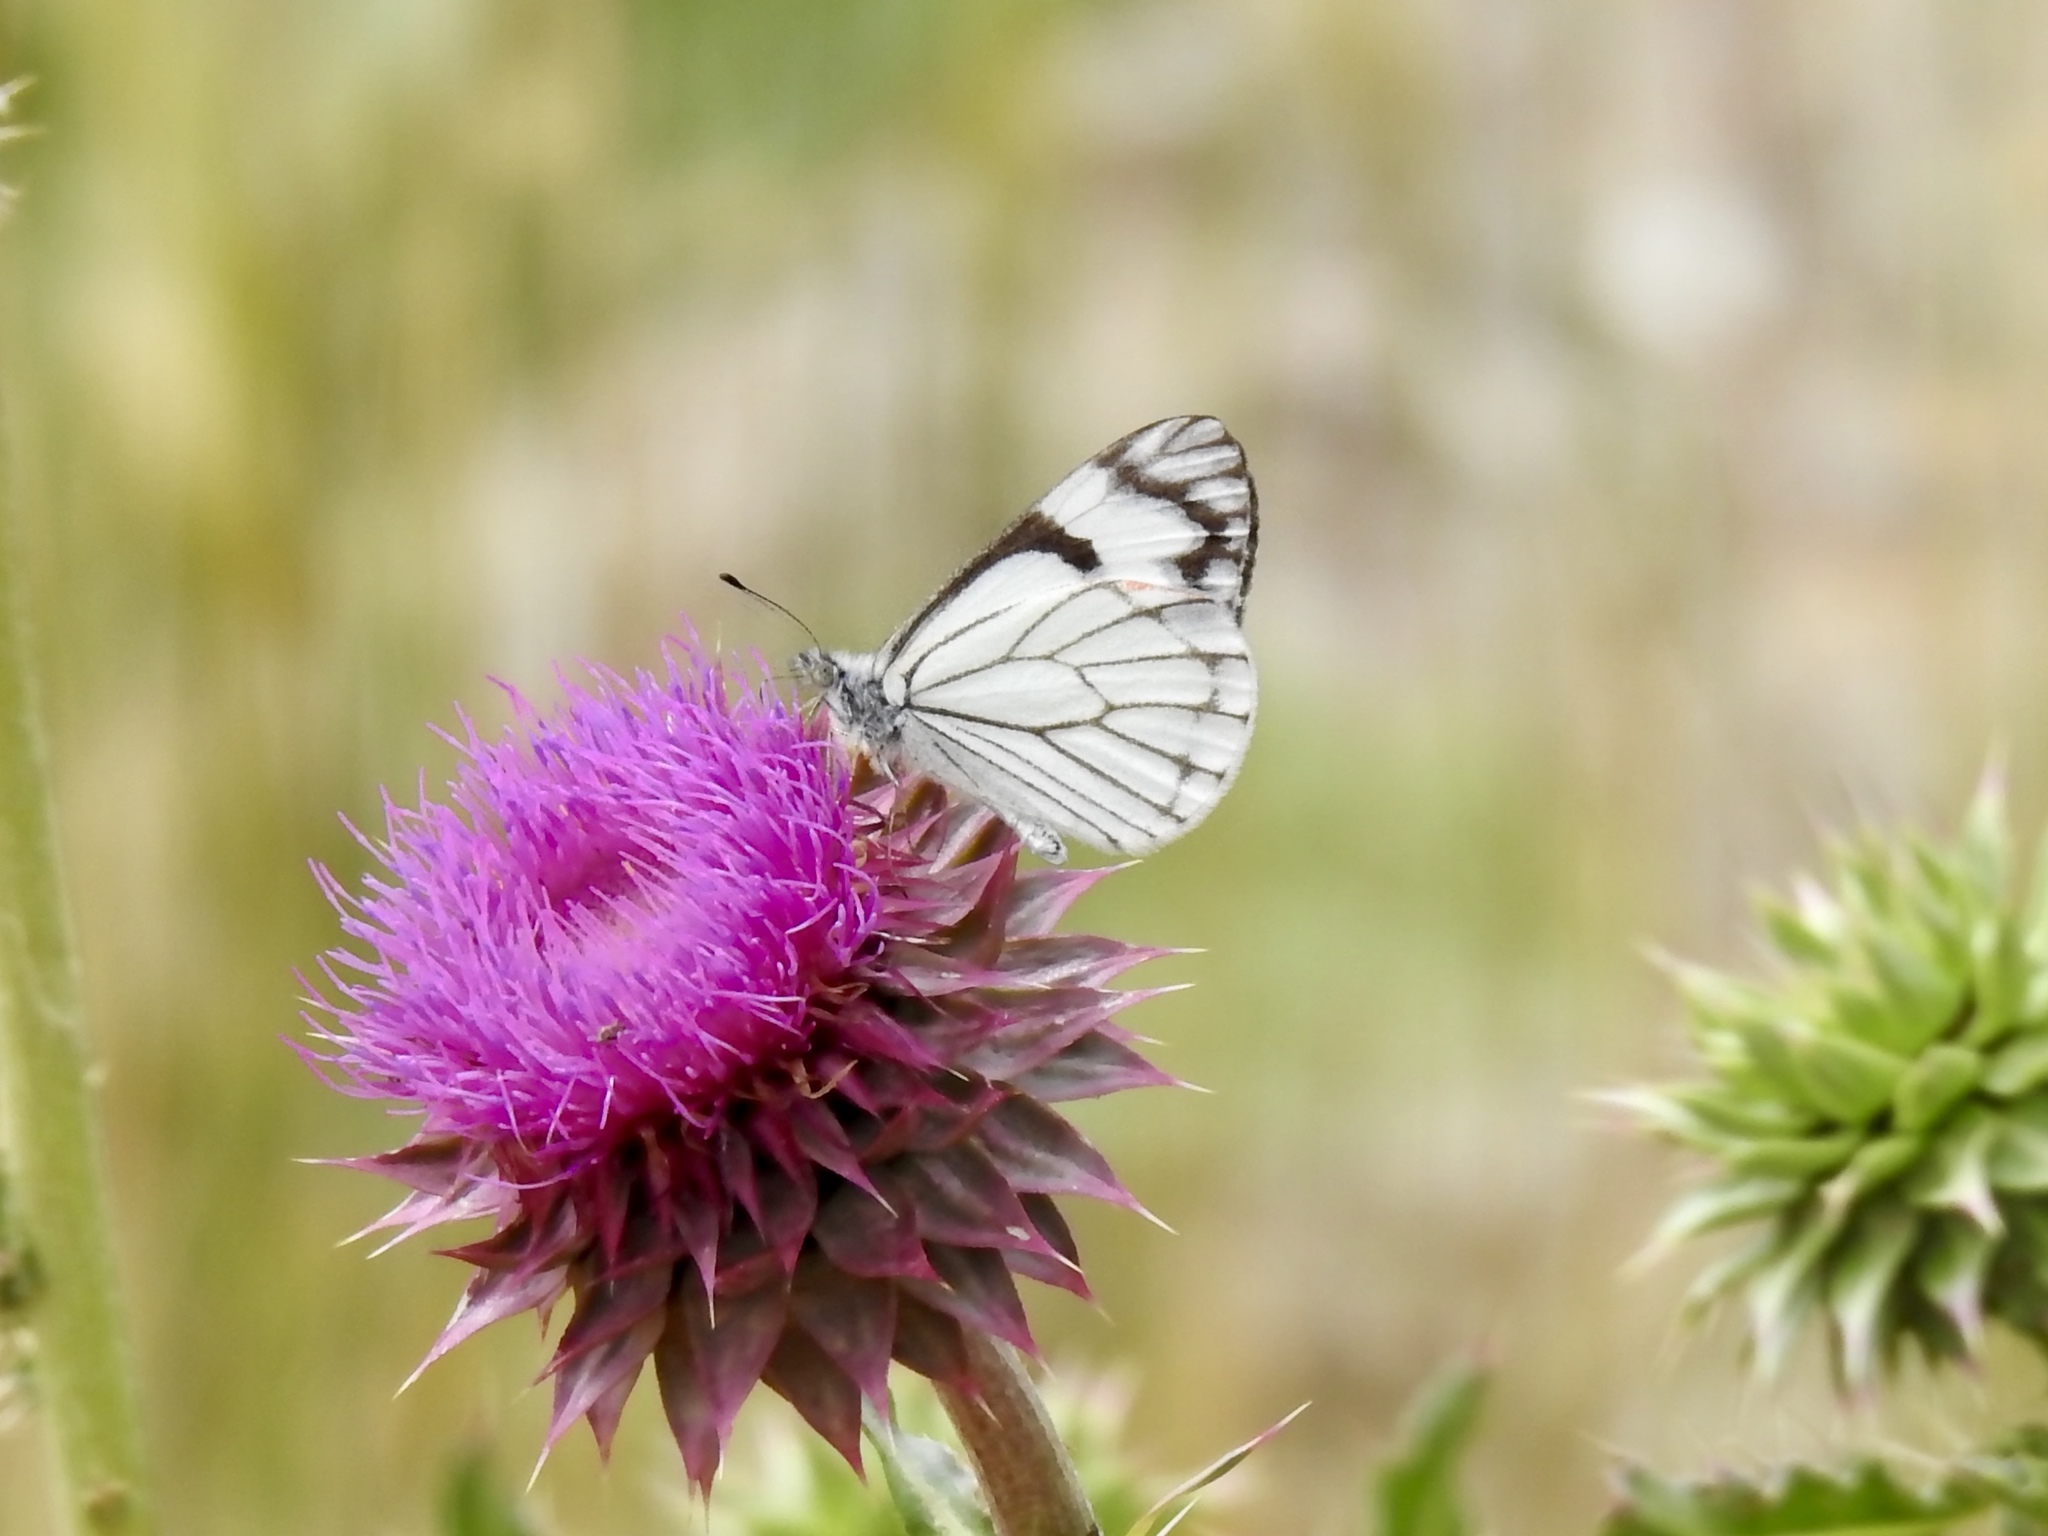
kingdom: Animalia
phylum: Arthropoda
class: Insecta
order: Lepidoptera
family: Pieridae
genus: Neophasia
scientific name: Neophasia menapia
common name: Pine white
